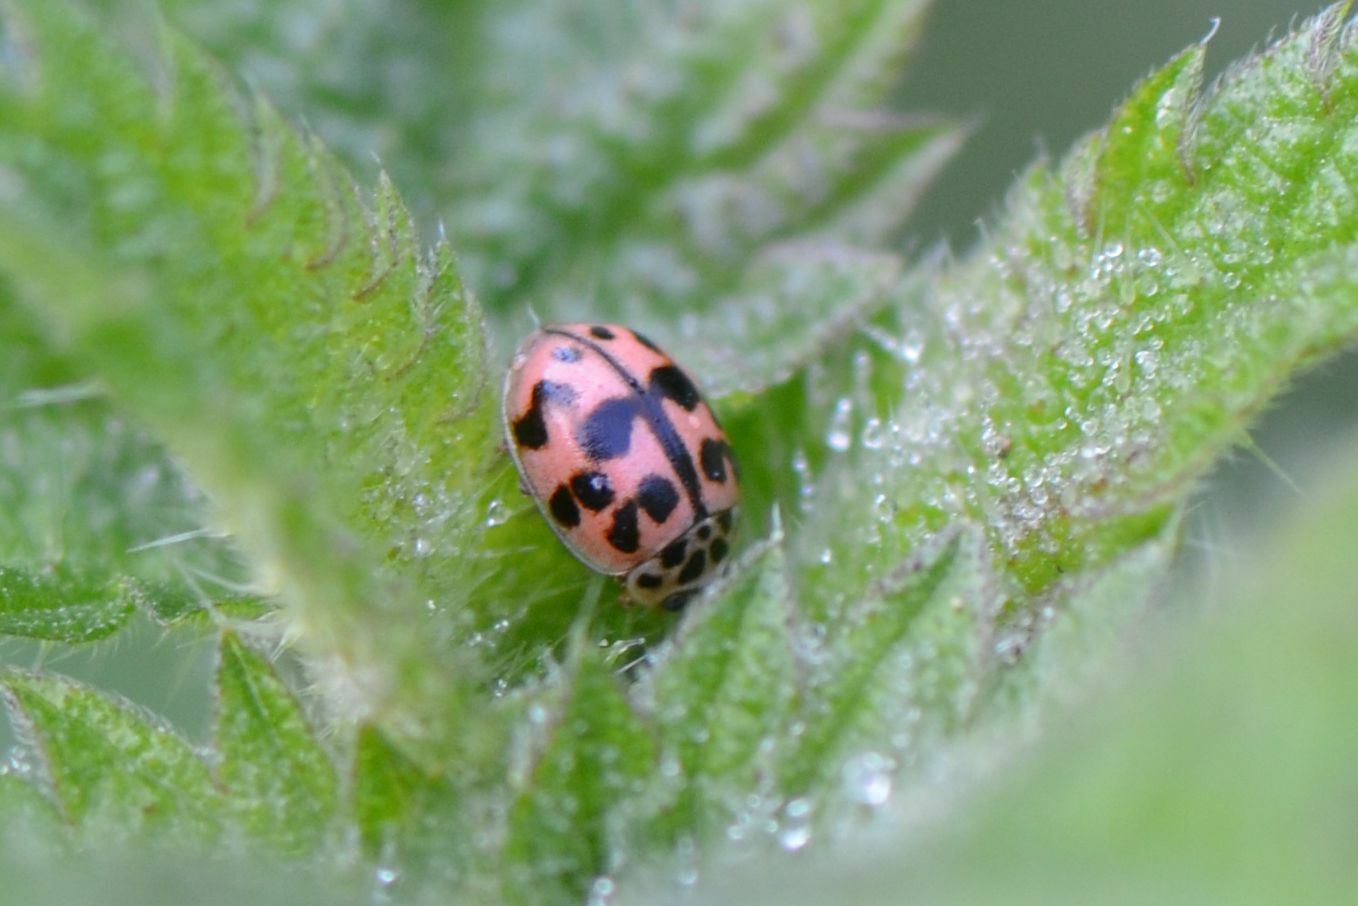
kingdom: Animalia
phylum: Arthropoda
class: Insecta
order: Coleoptera
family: Coccinellidae
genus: Oenopia
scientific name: Oenopia conglobata
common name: Ladybird beetle
